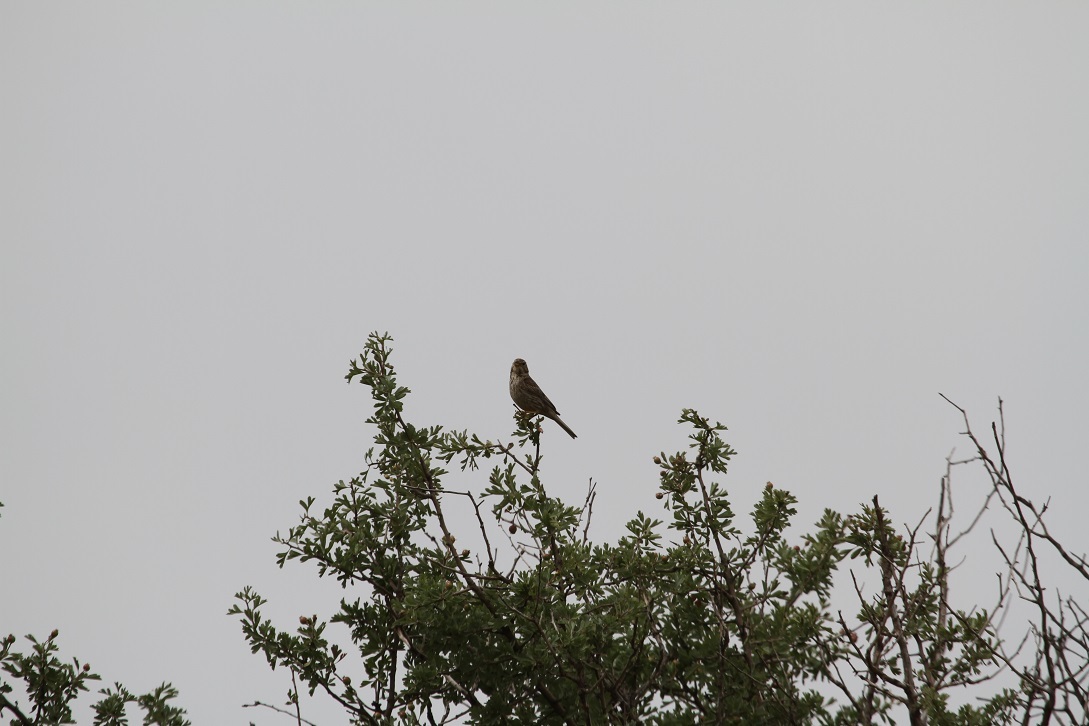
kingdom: Animalia
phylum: Chordata
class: Aves
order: Passeriformes
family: Motacillidae
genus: Anthus
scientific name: Anthus trivialis
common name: Tree pipit
